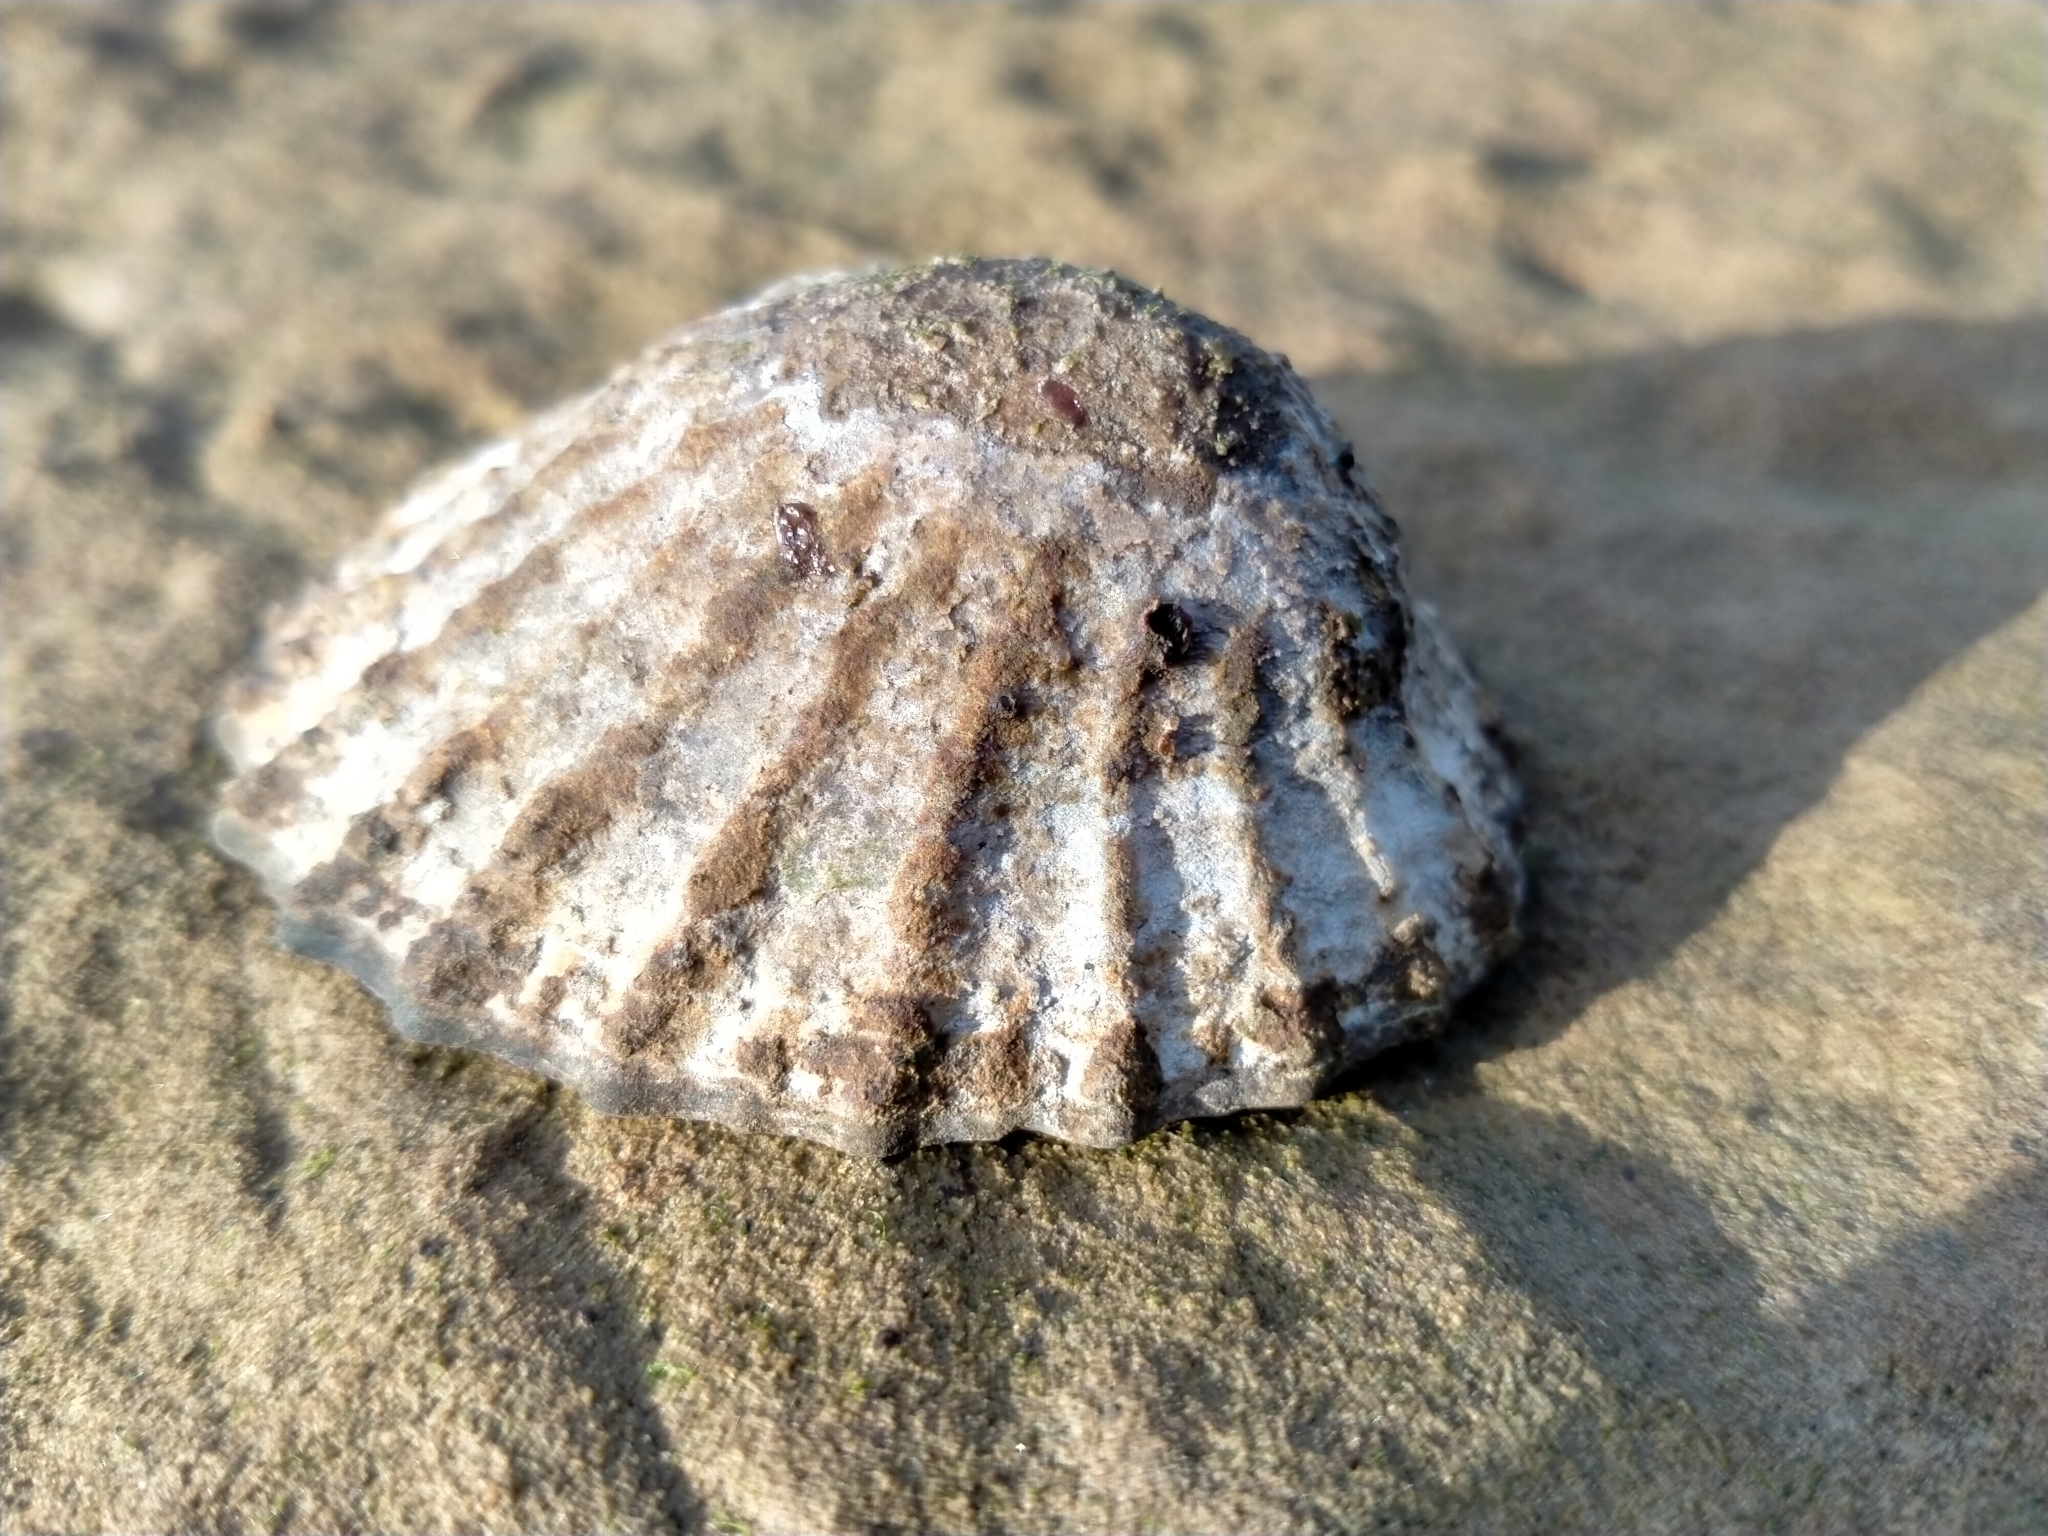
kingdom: Animalia
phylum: Mollusca
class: Gastropoda
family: Nacellidae
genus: Cellana
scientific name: Cellana strigilis
